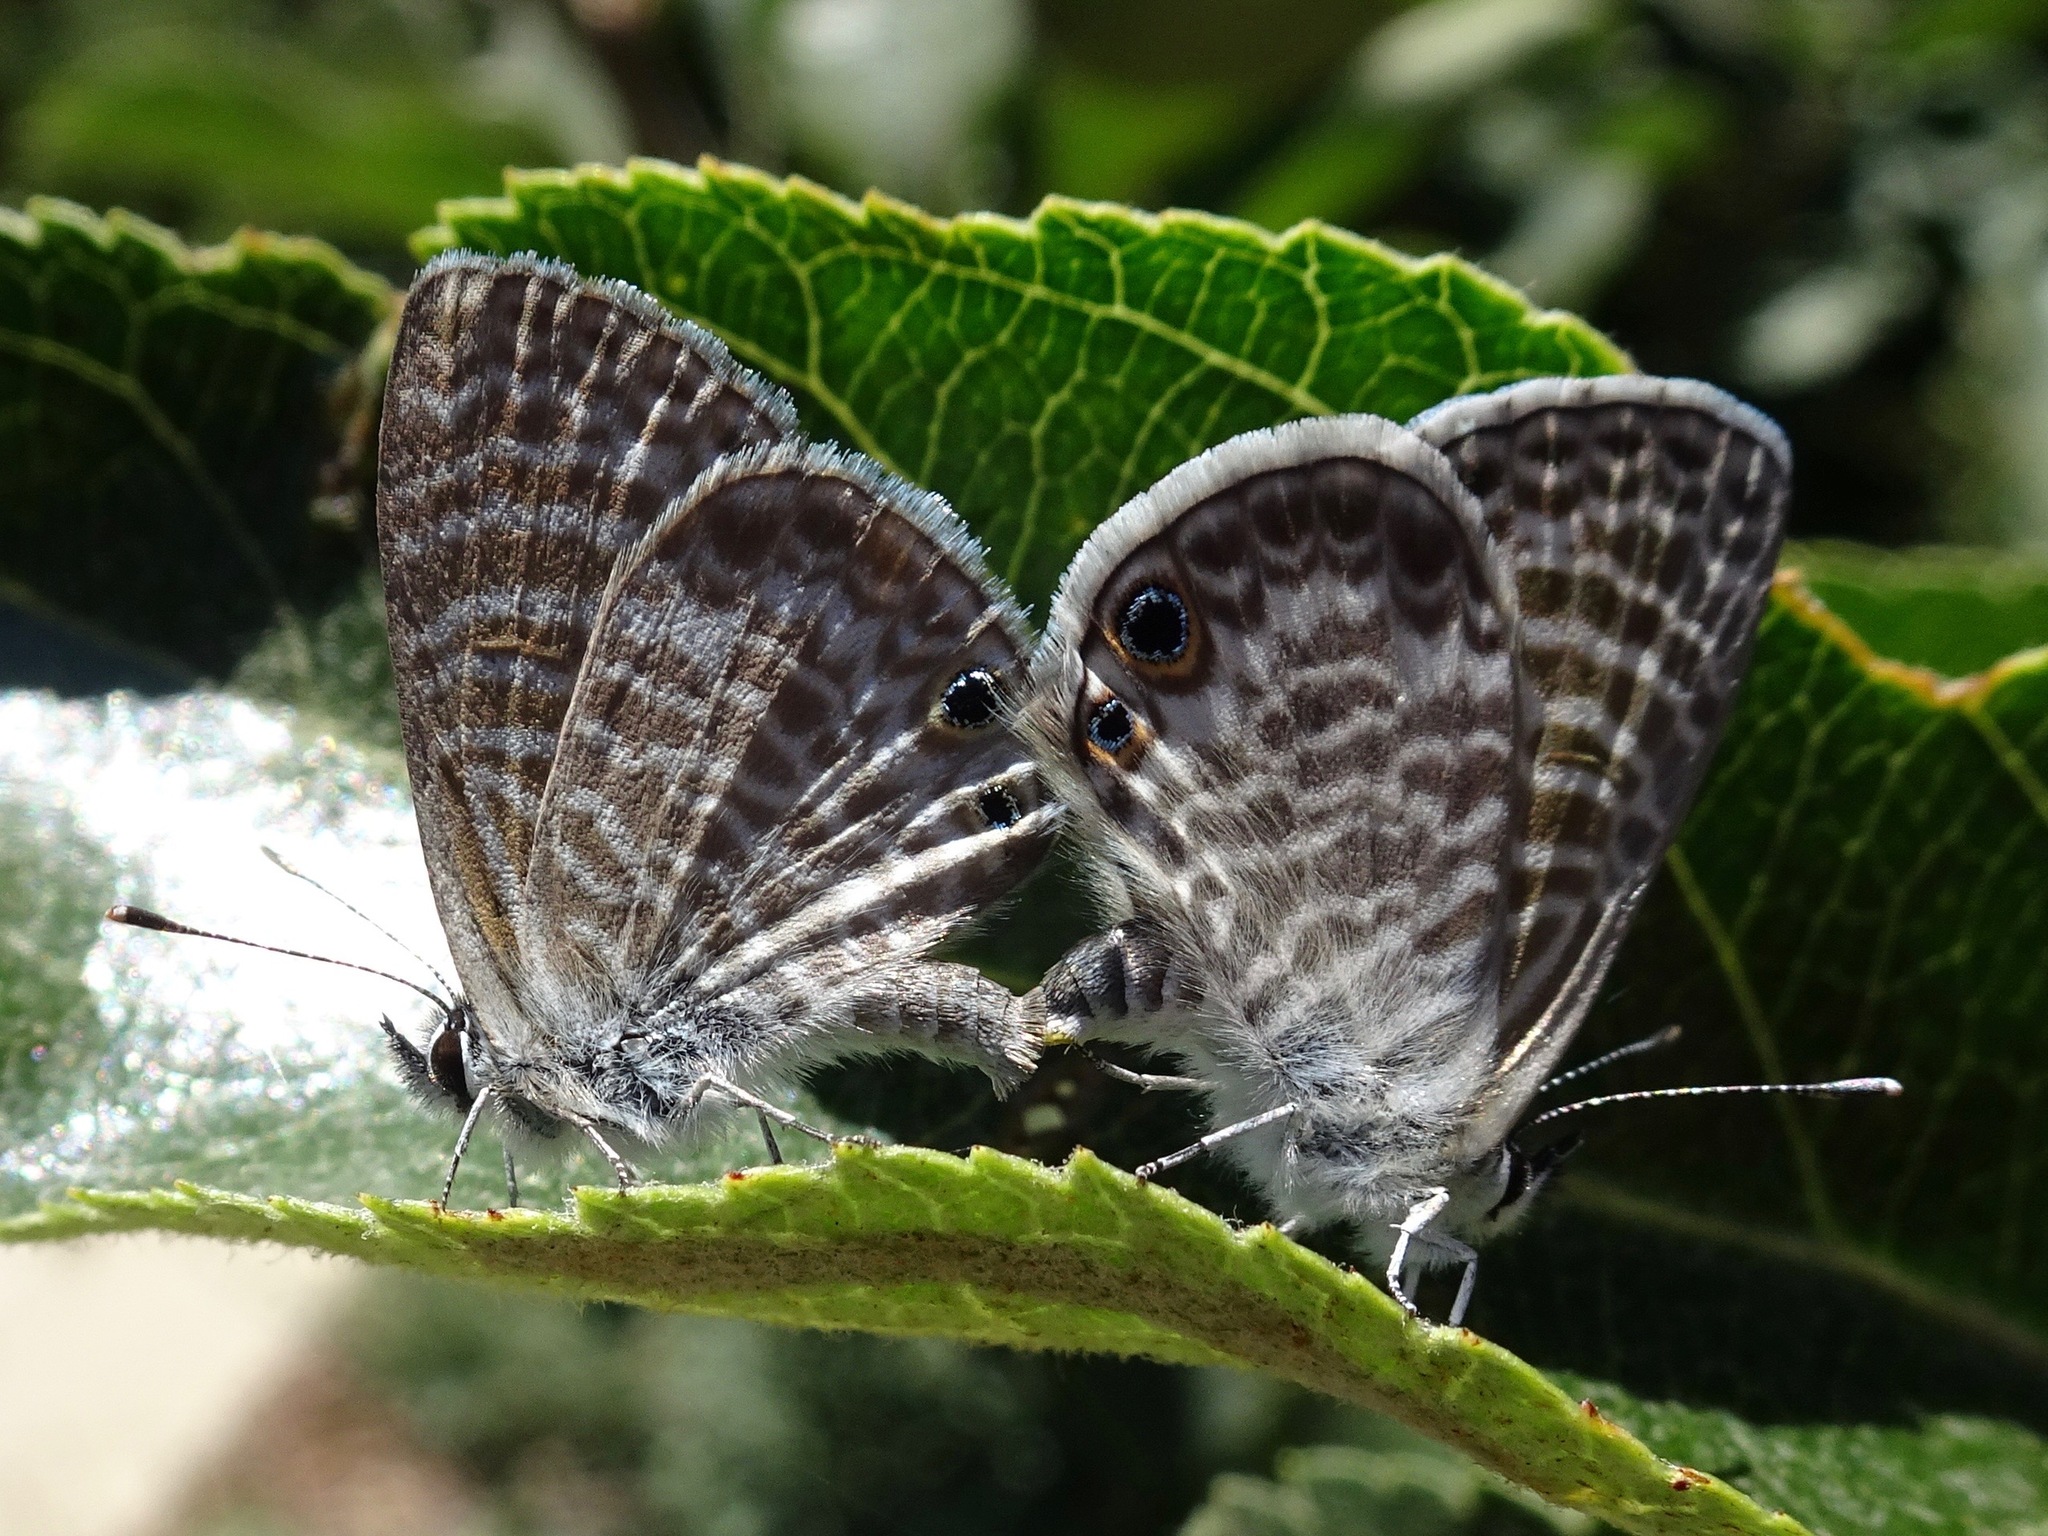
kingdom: Animalia
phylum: Arthropoda
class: Insecta
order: Lepidoptera
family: Lycaenidae
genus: Leptotes
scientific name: Leptotes marina
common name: Marine blue
